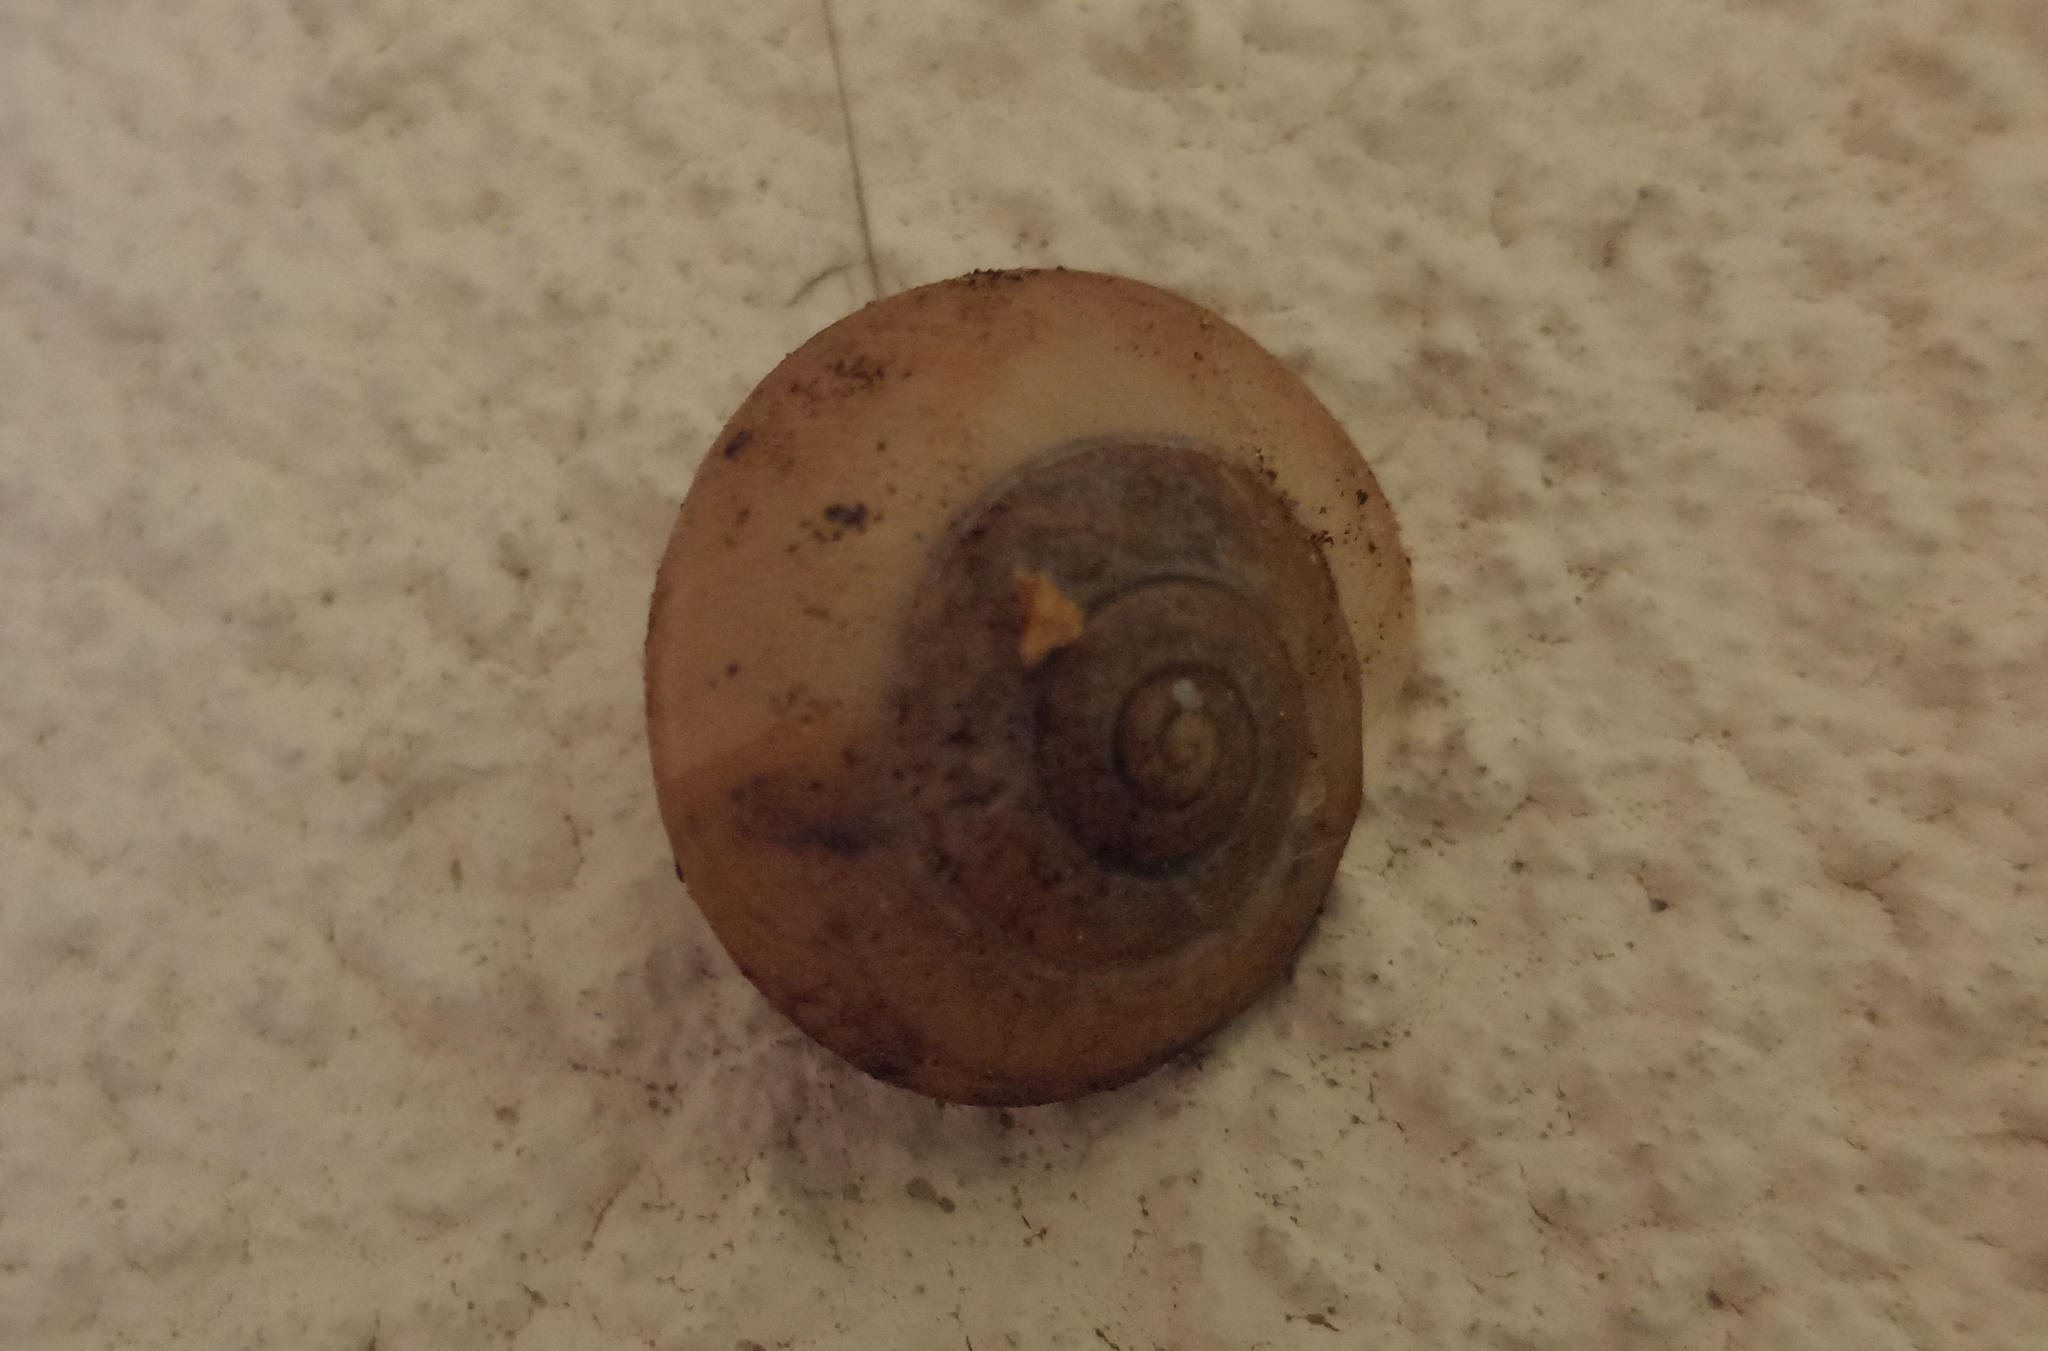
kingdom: Animalia
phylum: Mollusca
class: Gastropoda
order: Stylommatophora
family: Camaenidae
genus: Bradybaena
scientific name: Bradybaena similaris
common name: Asian trampsnail
